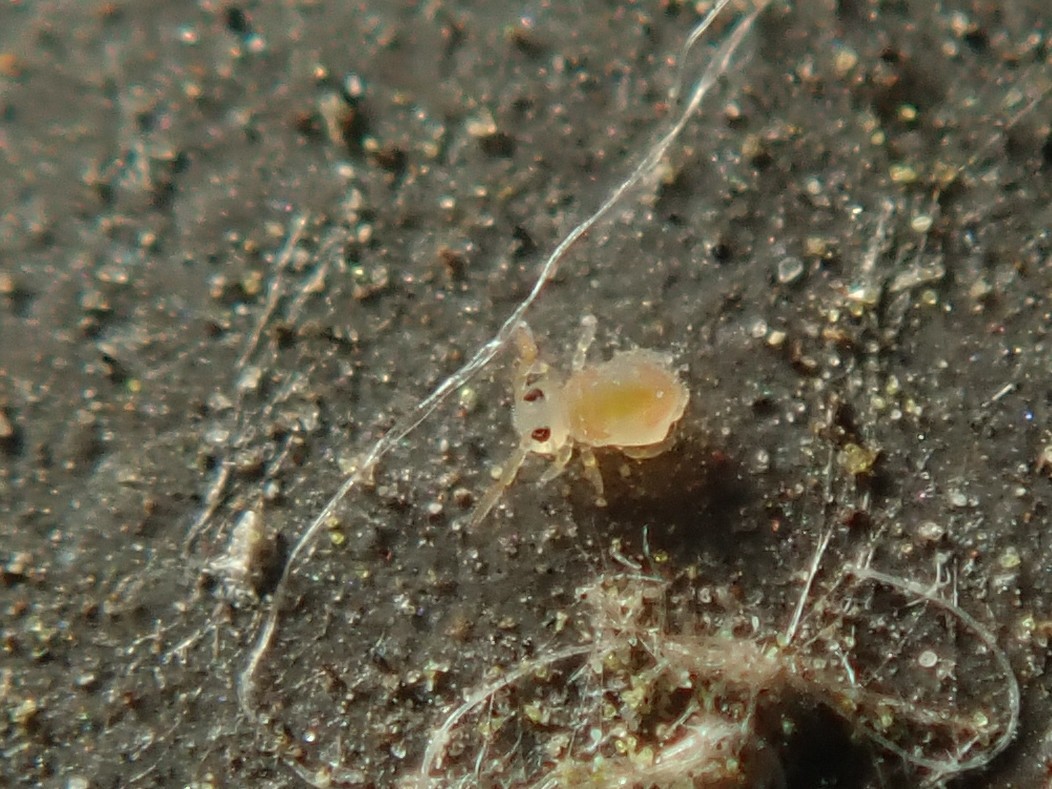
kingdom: Animalia
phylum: Arthropoda
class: Collembola
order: Symphypleona
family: Bourletiellidae
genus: Deuterosminthurus
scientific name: Deuterosminthurus bicinctus
